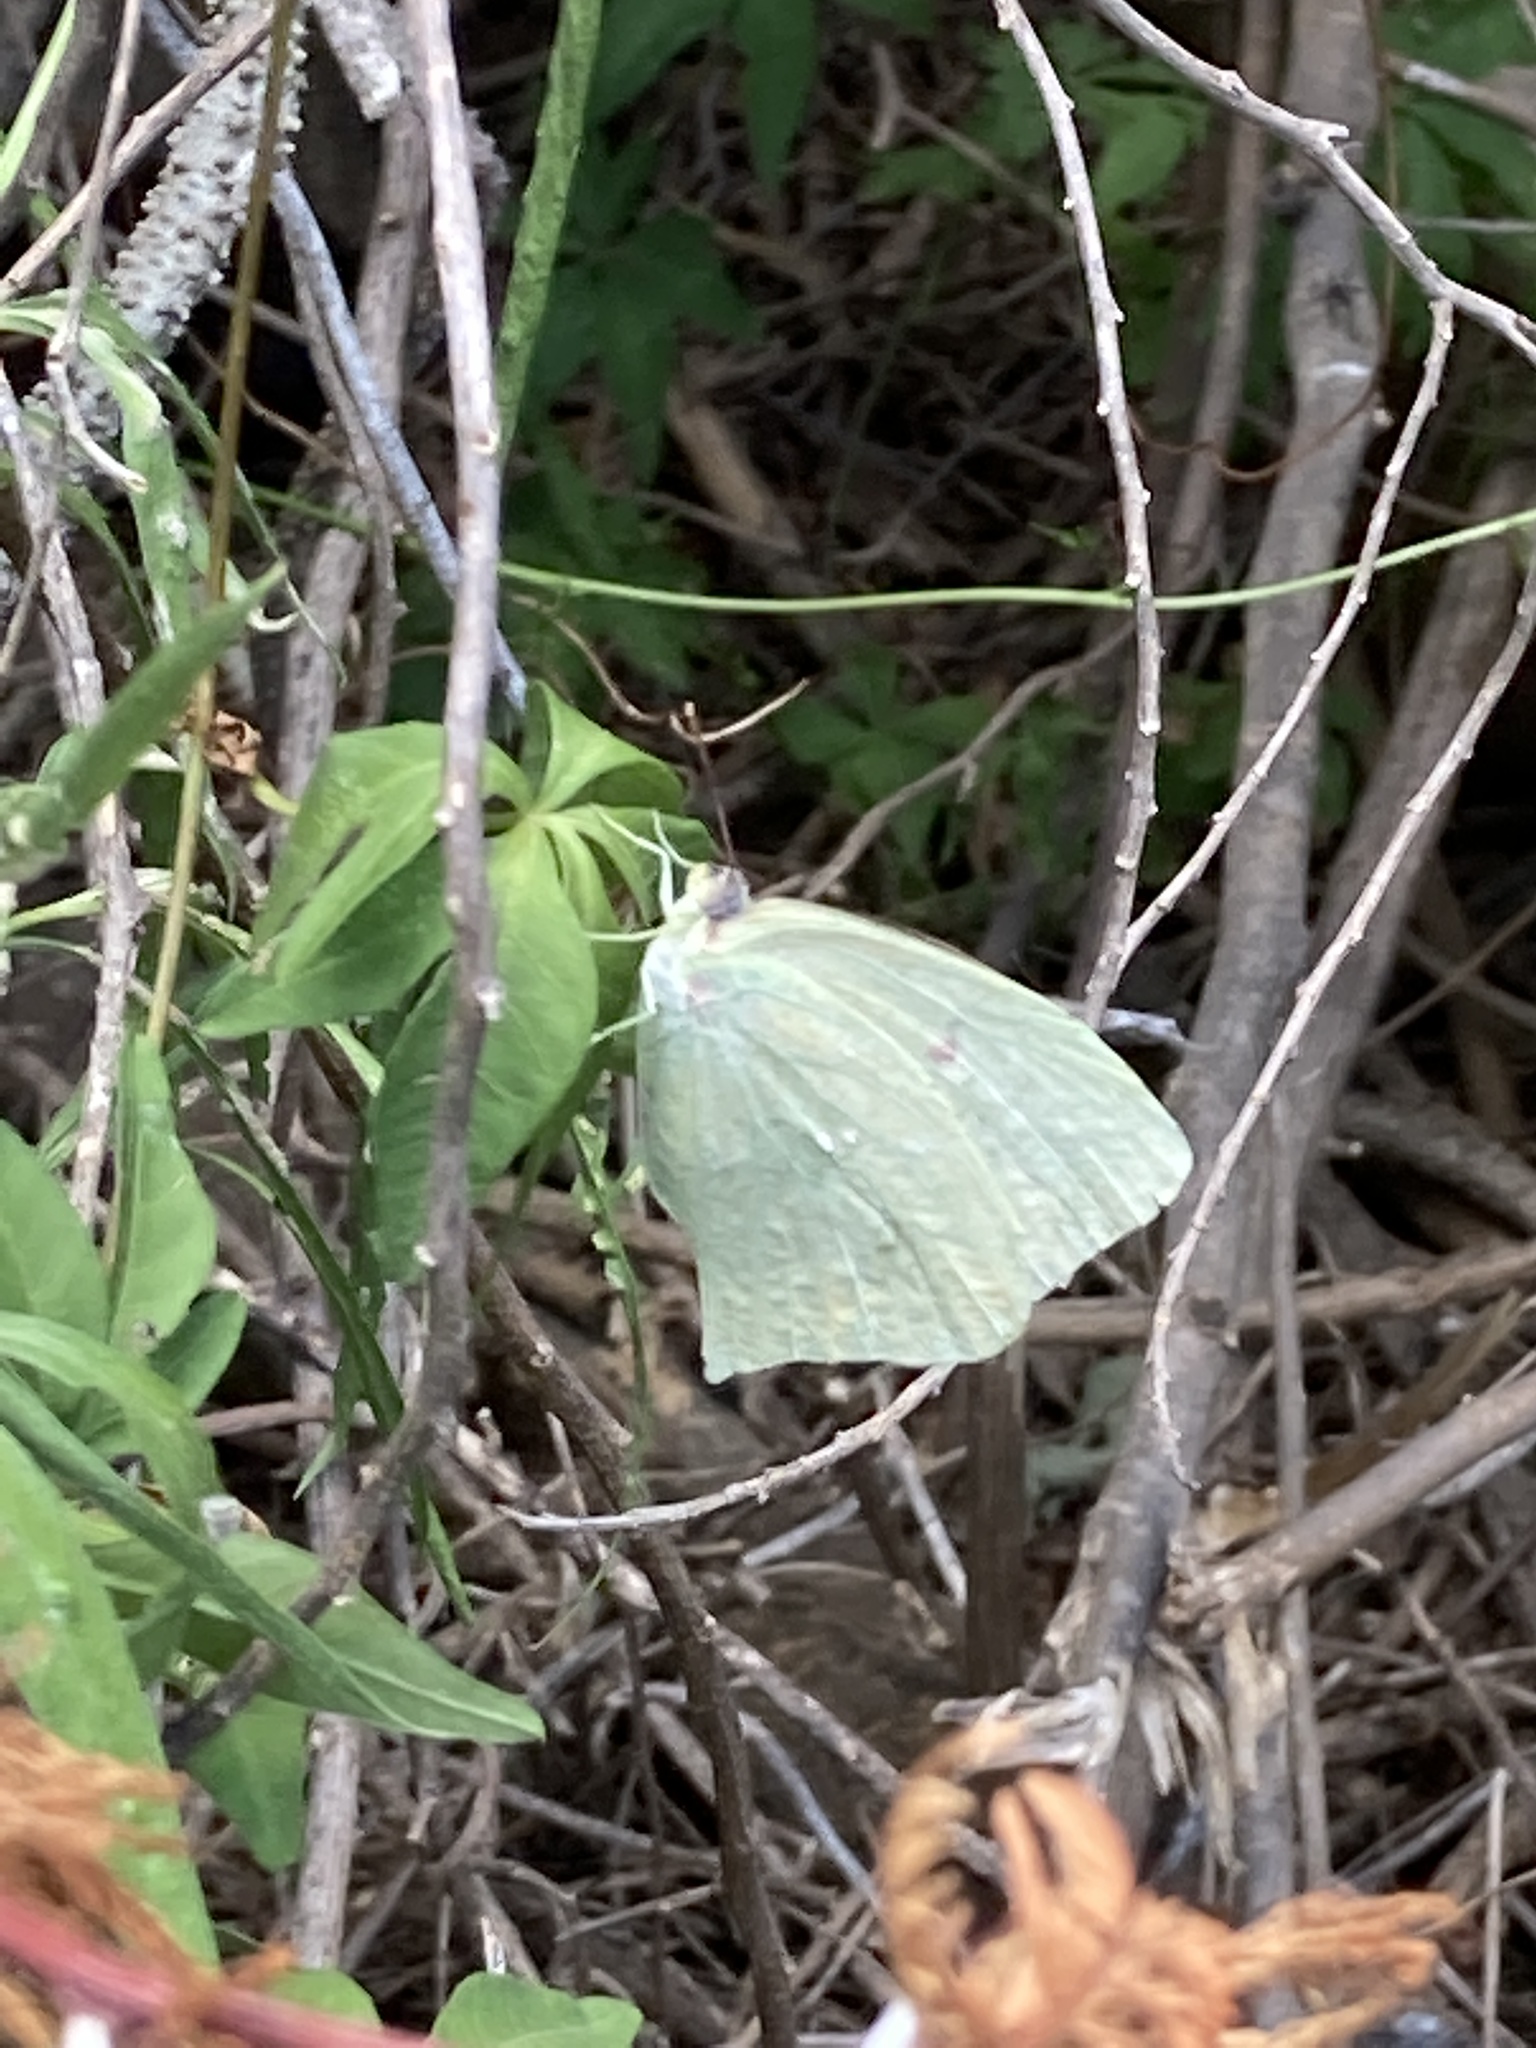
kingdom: Animalia
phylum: Arthropoda
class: Insecta
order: Lepidoptera
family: Pieridae
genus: Phoebis
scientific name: Phoebis neocypris
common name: Tailed sulphur
